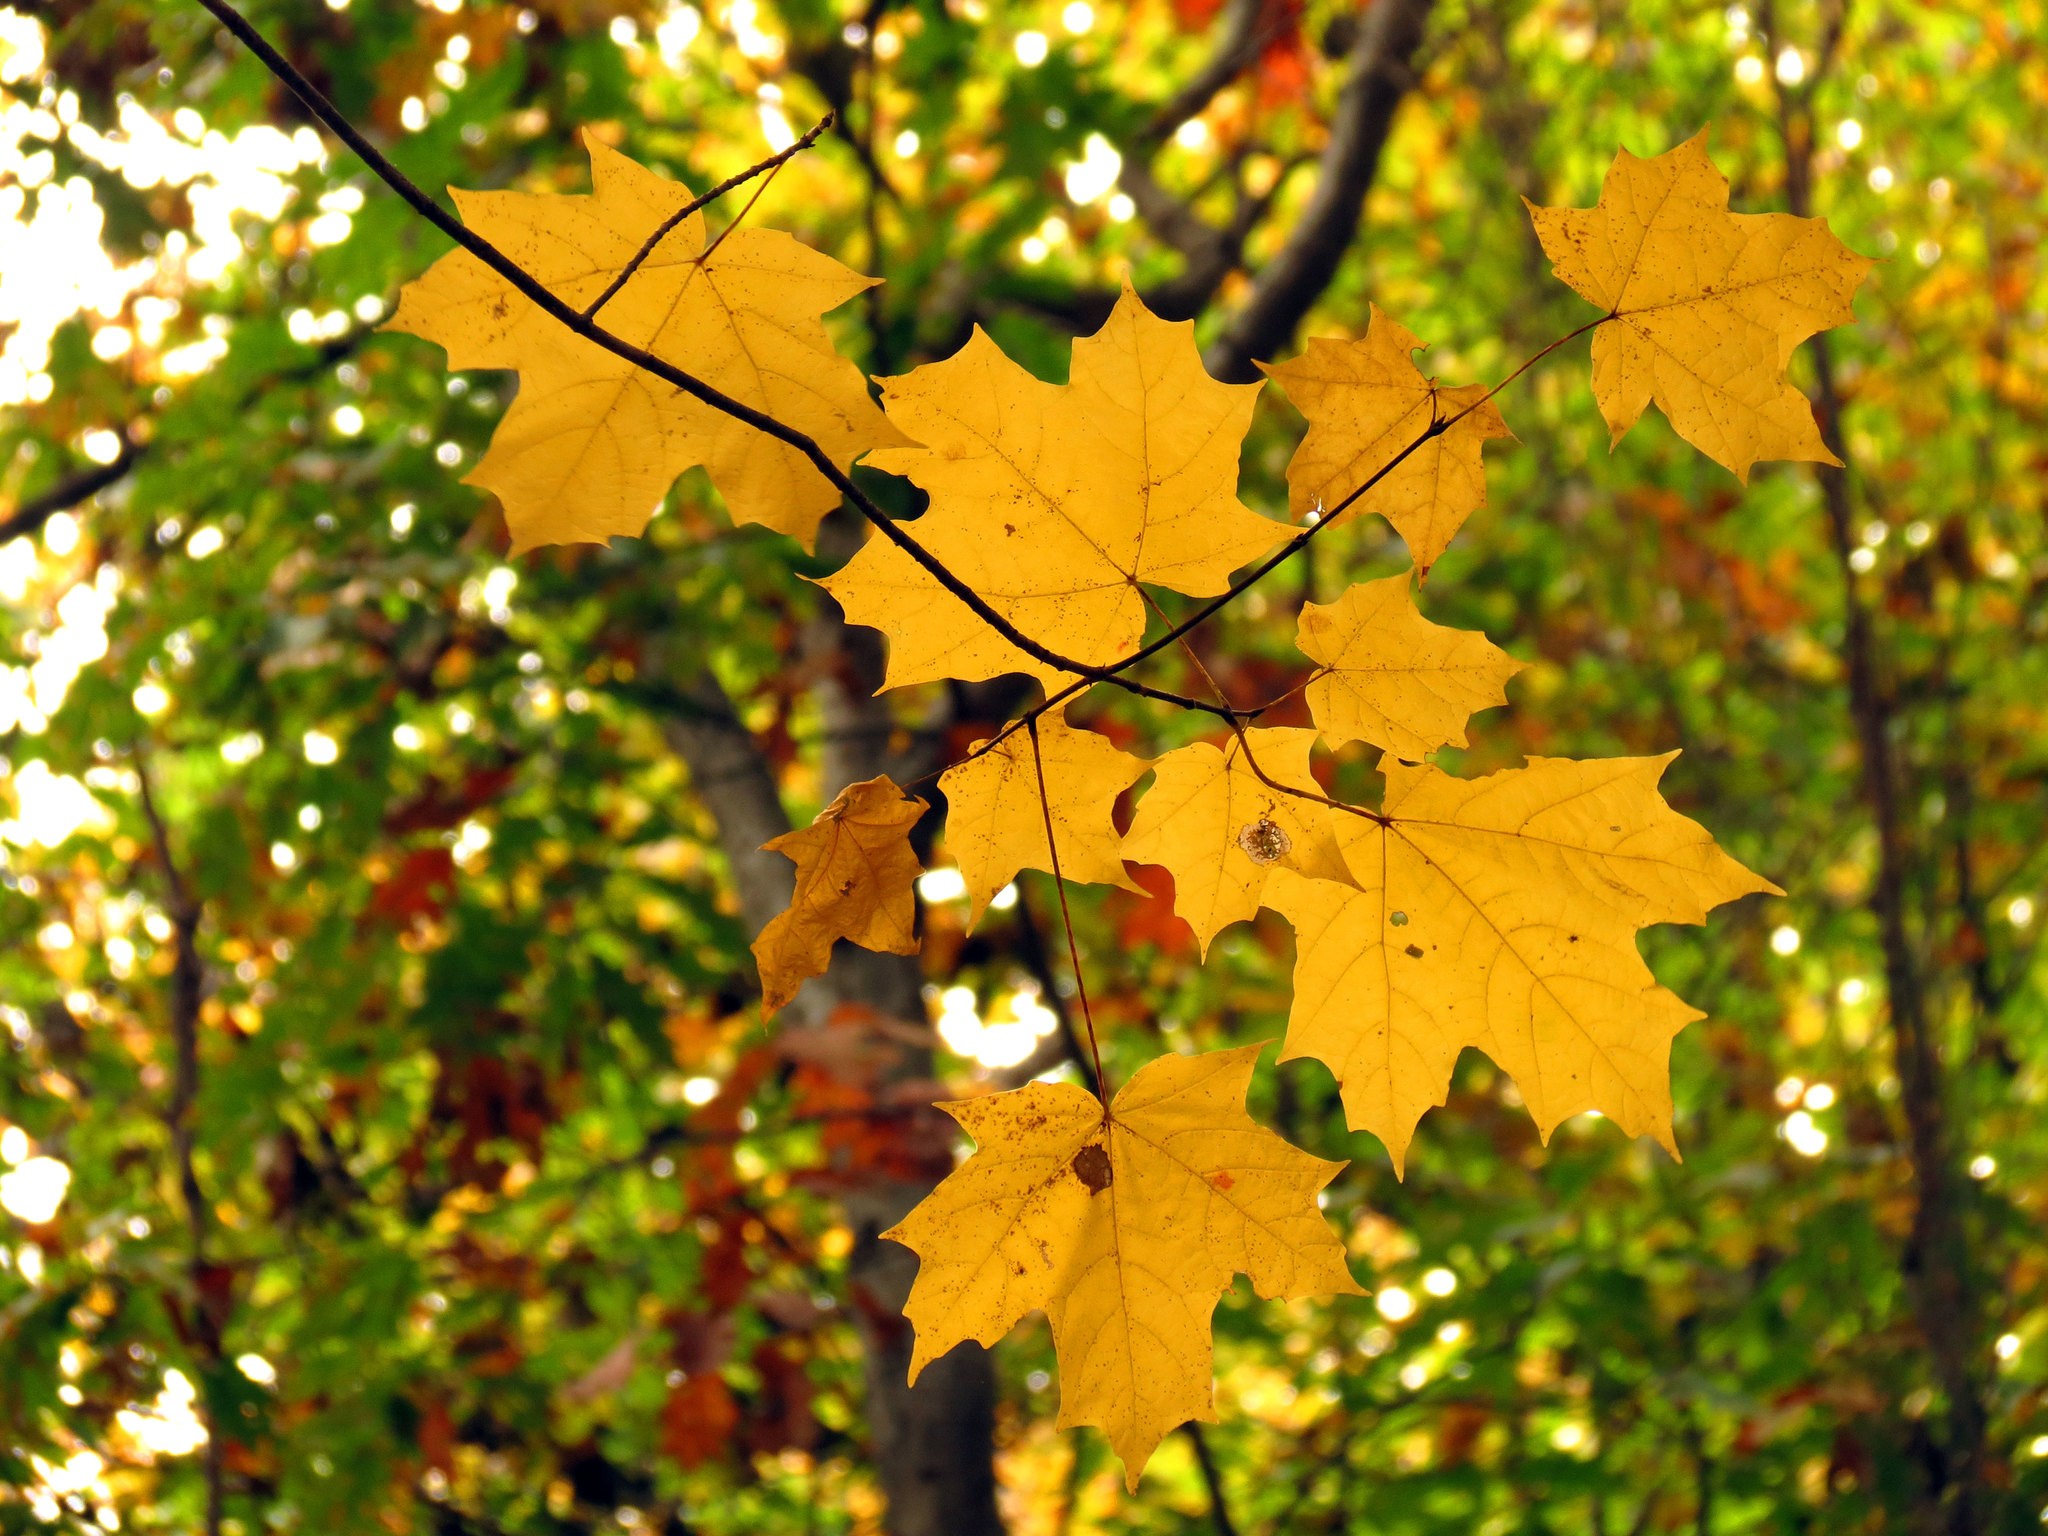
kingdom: Plantae
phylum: Tracheophyta
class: Magnoliopsida
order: Sapindales
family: Sapindaceae
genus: Acer
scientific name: Acer saccharum
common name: Sugar maple
